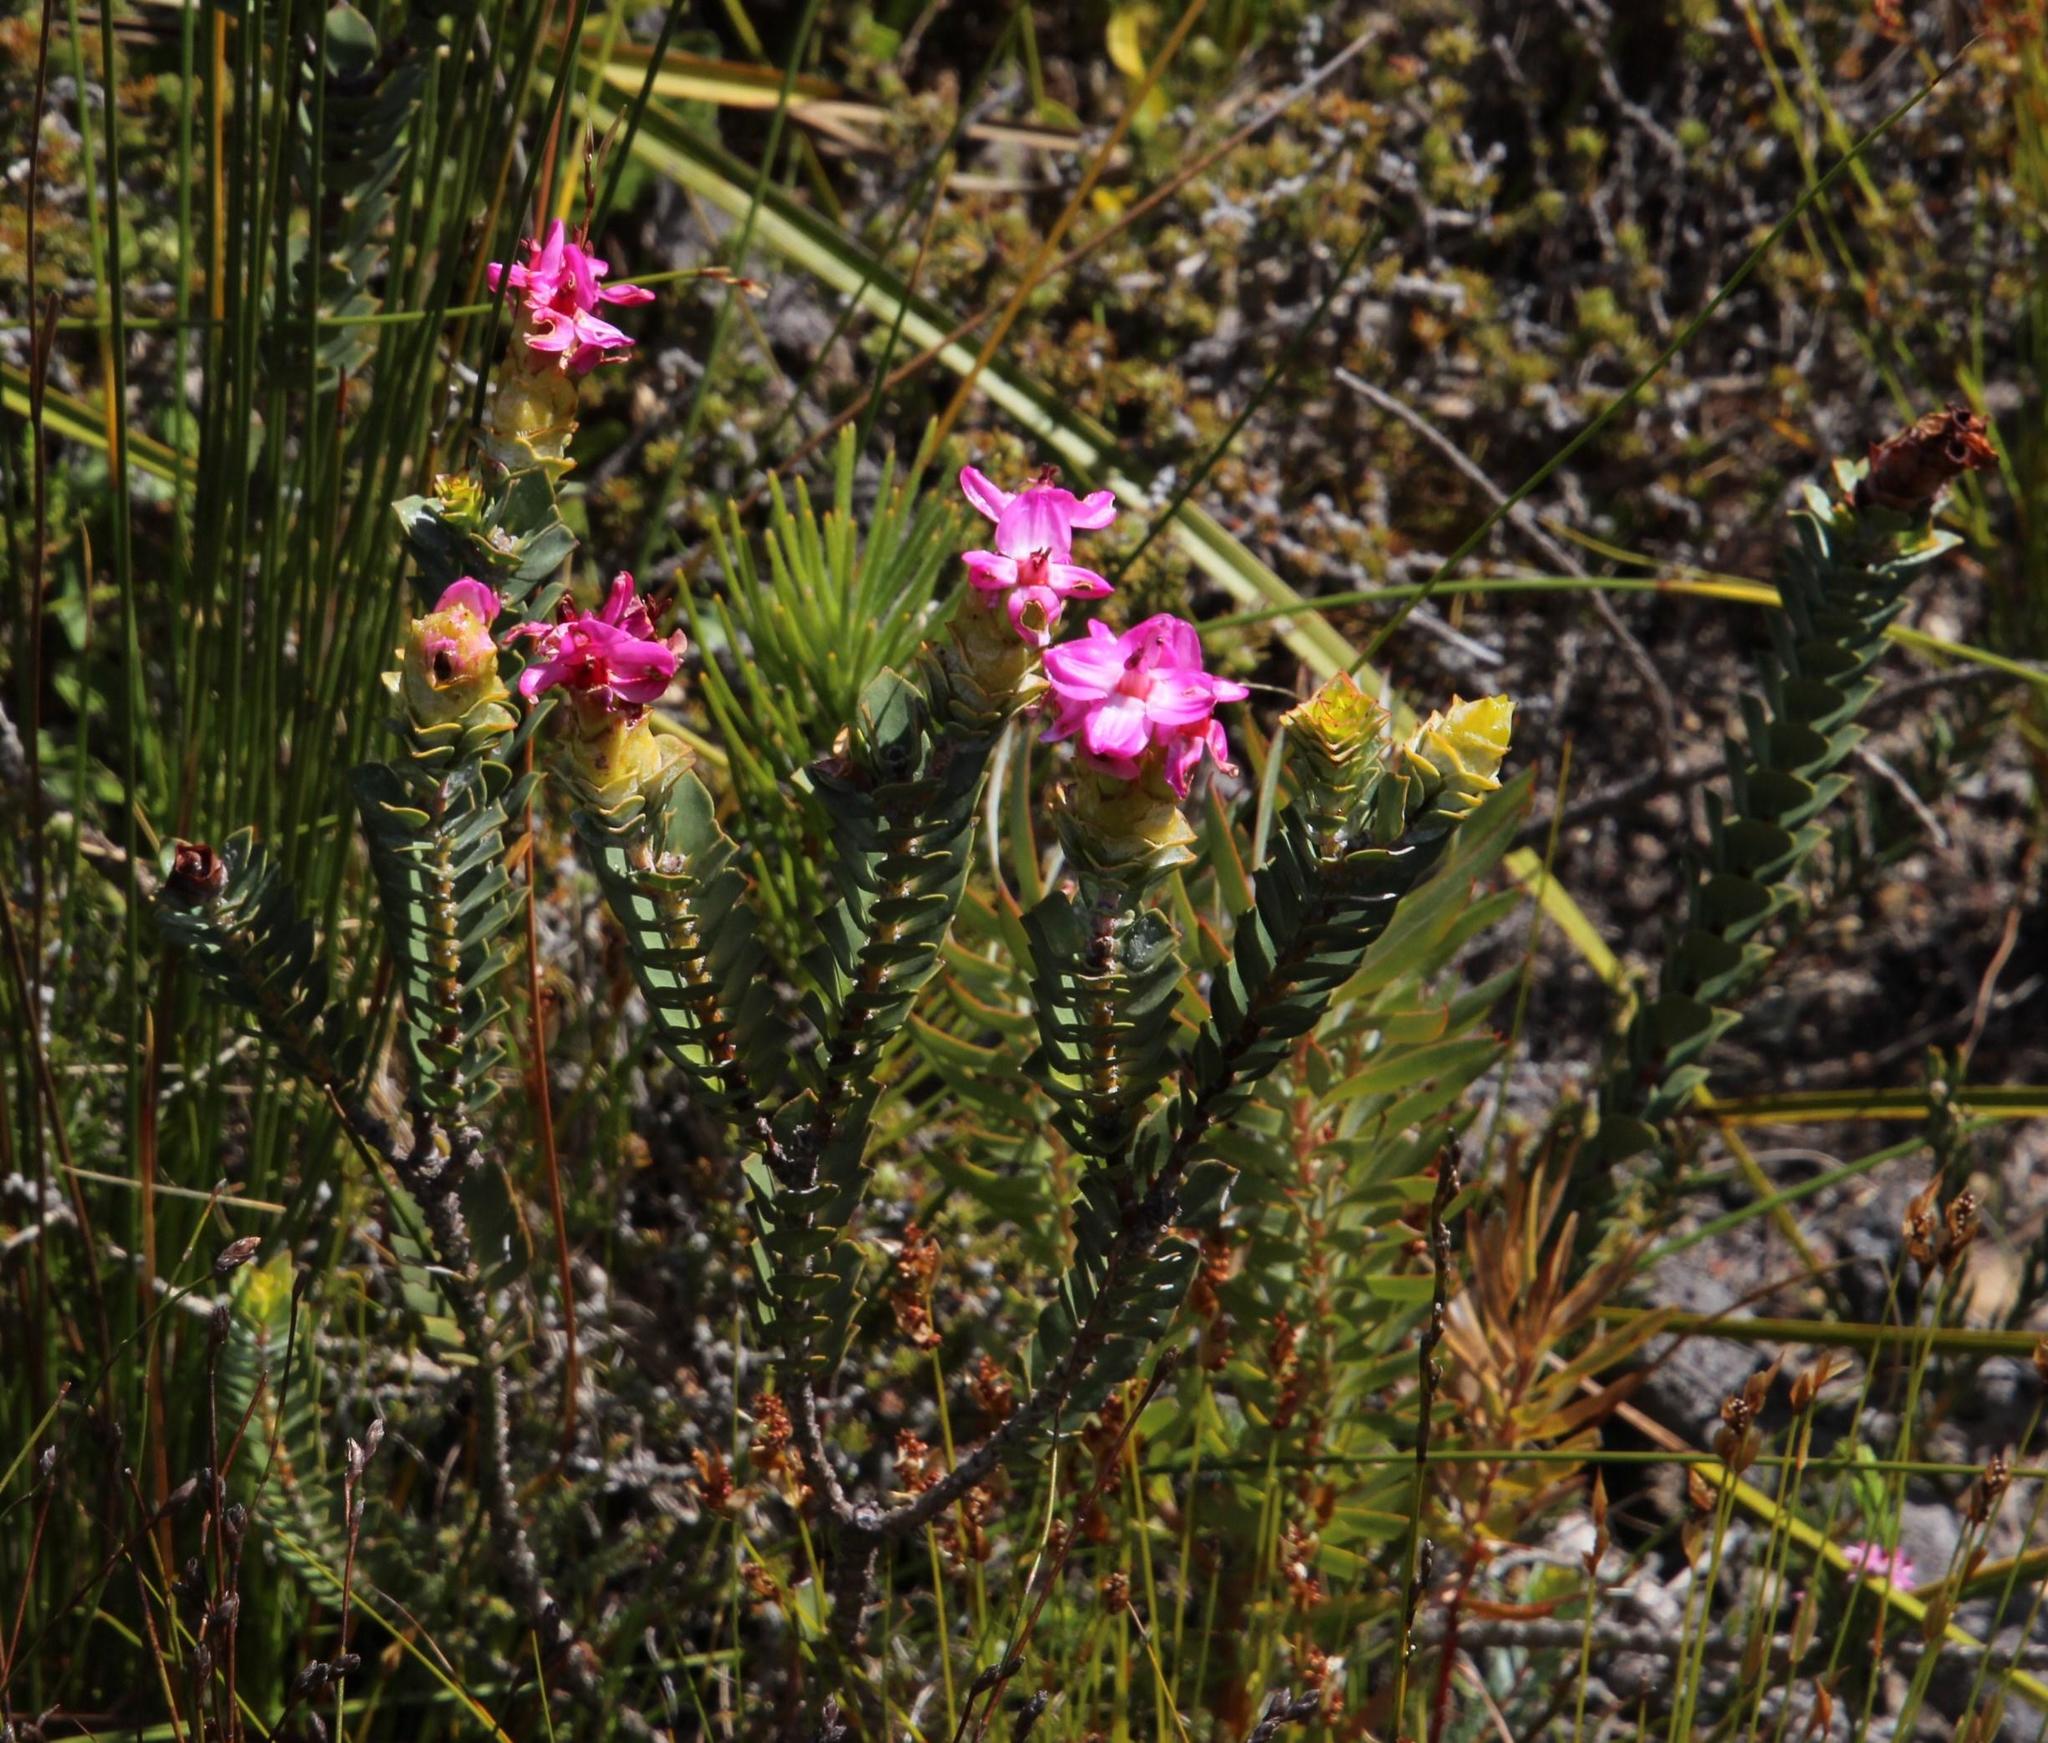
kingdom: Plantae
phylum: Tracheophyta
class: Magnoliopsida
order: Myrtales
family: Penaeaceae
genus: Saltera
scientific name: Saltera sarcocolla
